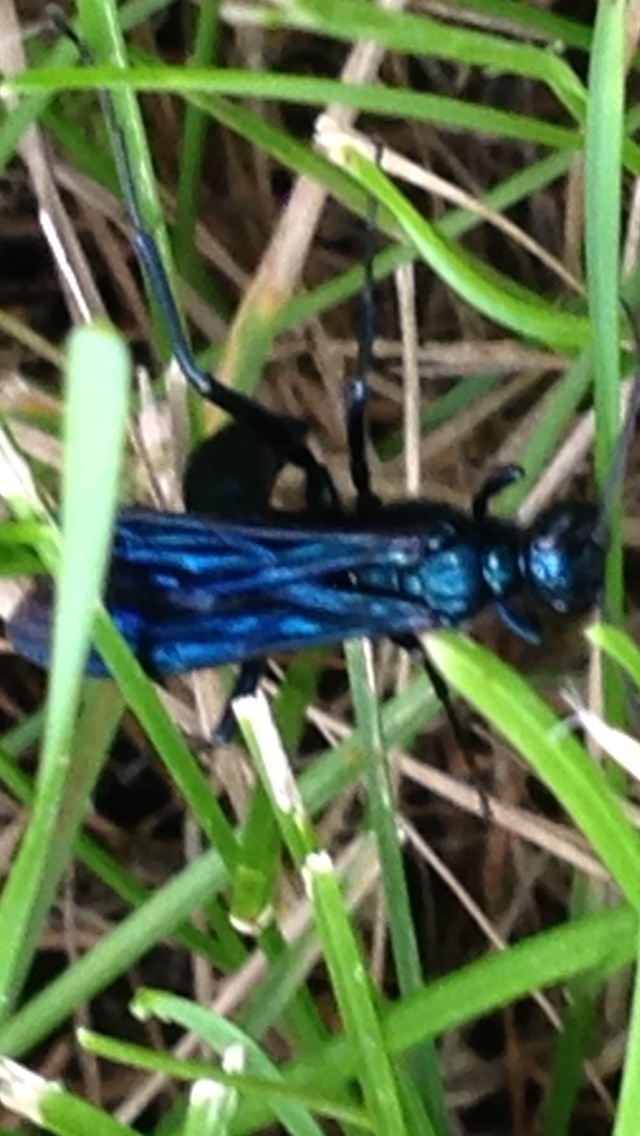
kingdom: Animalia
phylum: Arthropoda
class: Insecta
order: Hymenoptera
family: Sphecidae
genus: Chalybion
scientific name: Chalybion californicum
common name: Mud dauber
